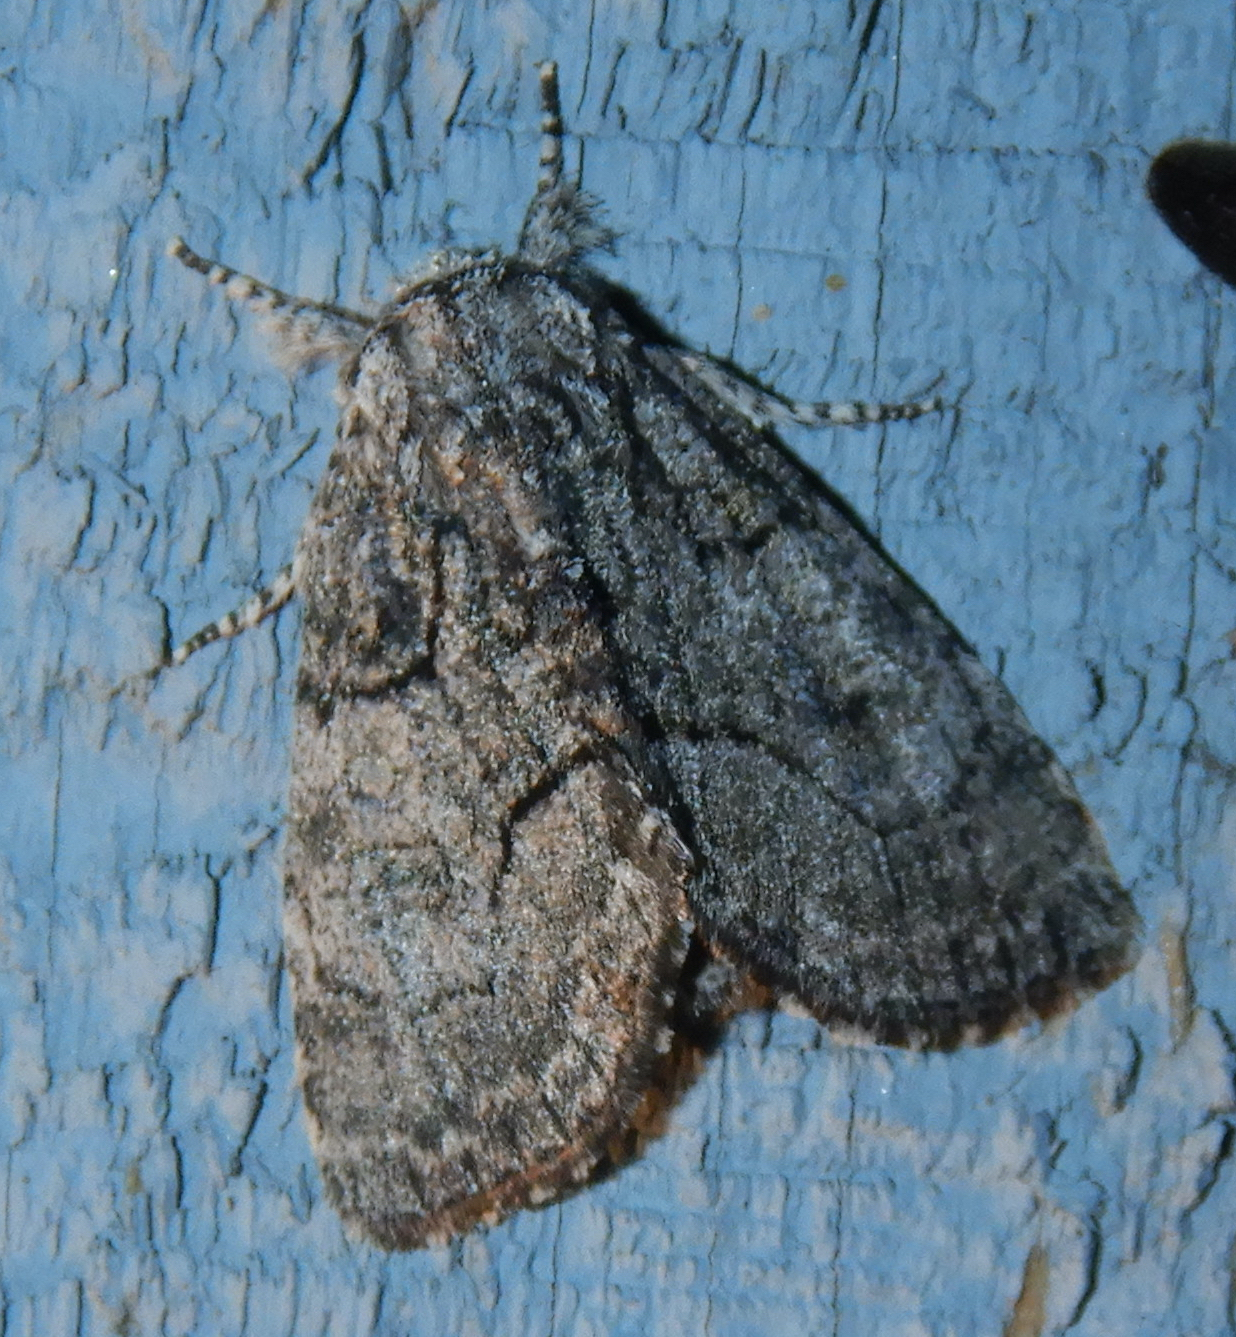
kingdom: Animalia
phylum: Arthropoda
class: Insecta
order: Lepidoptera
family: Noctuidae
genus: Raphia
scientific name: Raphia frater
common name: Brother
